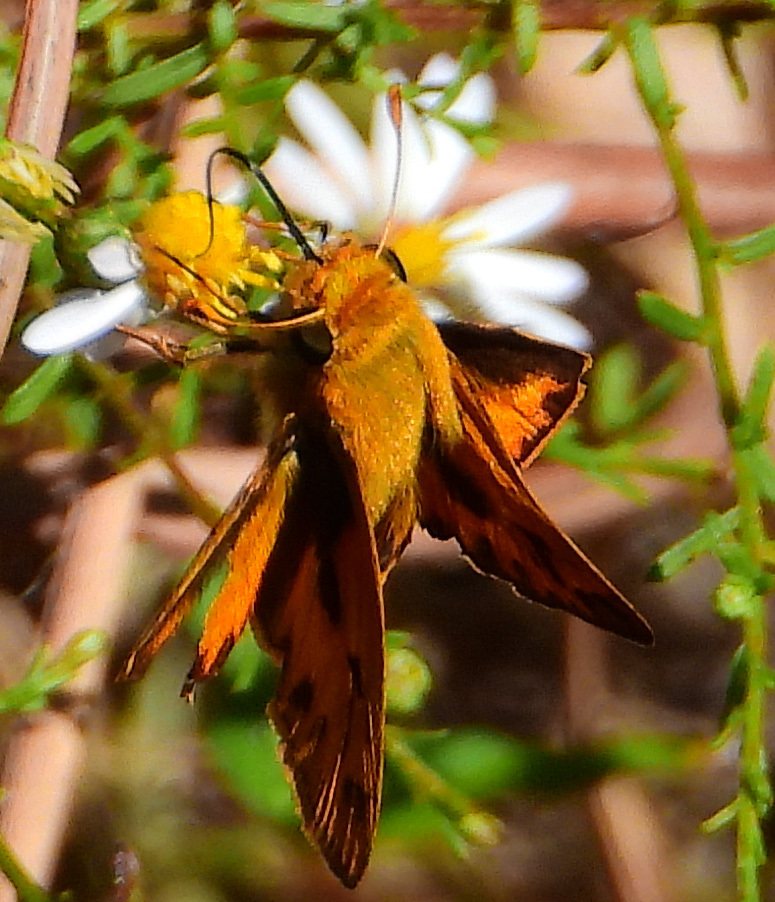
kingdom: Animalia
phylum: Arthropoda
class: Insecta
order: Lepidoptera
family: Hesperiidae
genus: Hylephila
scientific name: Hylephila phyleus
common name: Fiery skipper
